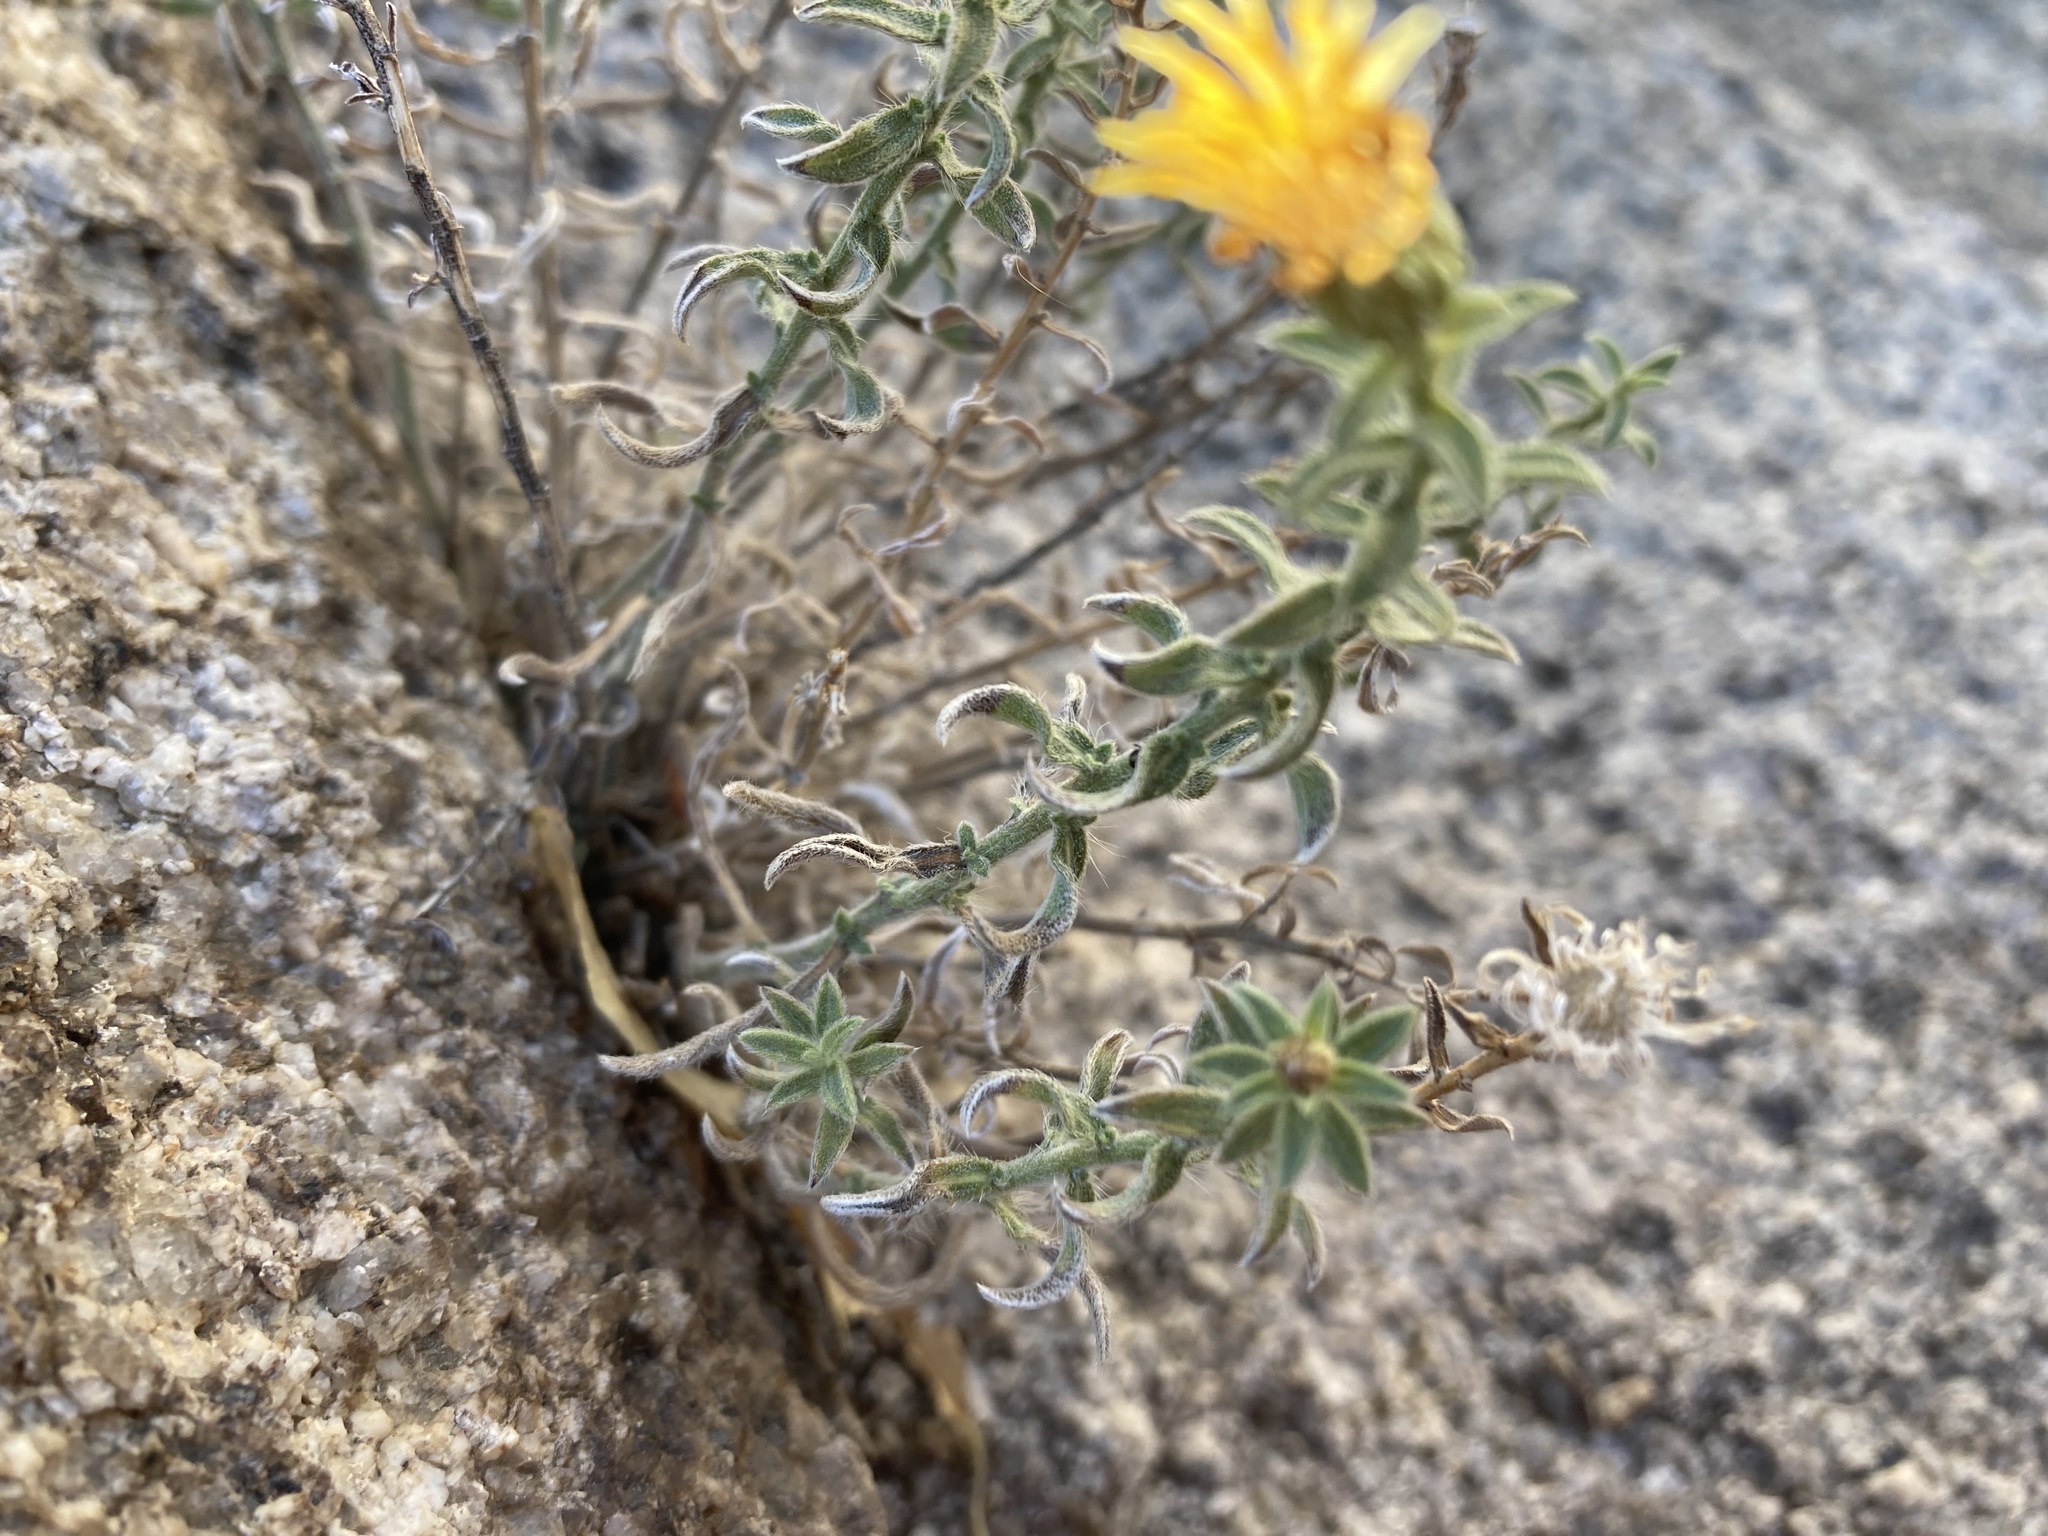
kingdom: Plantae
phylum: Tracheophyta
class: Magnoliopsida
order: Asterales
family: Asteraceae
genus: Heterotheca
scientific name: Heterotheca joshuana
